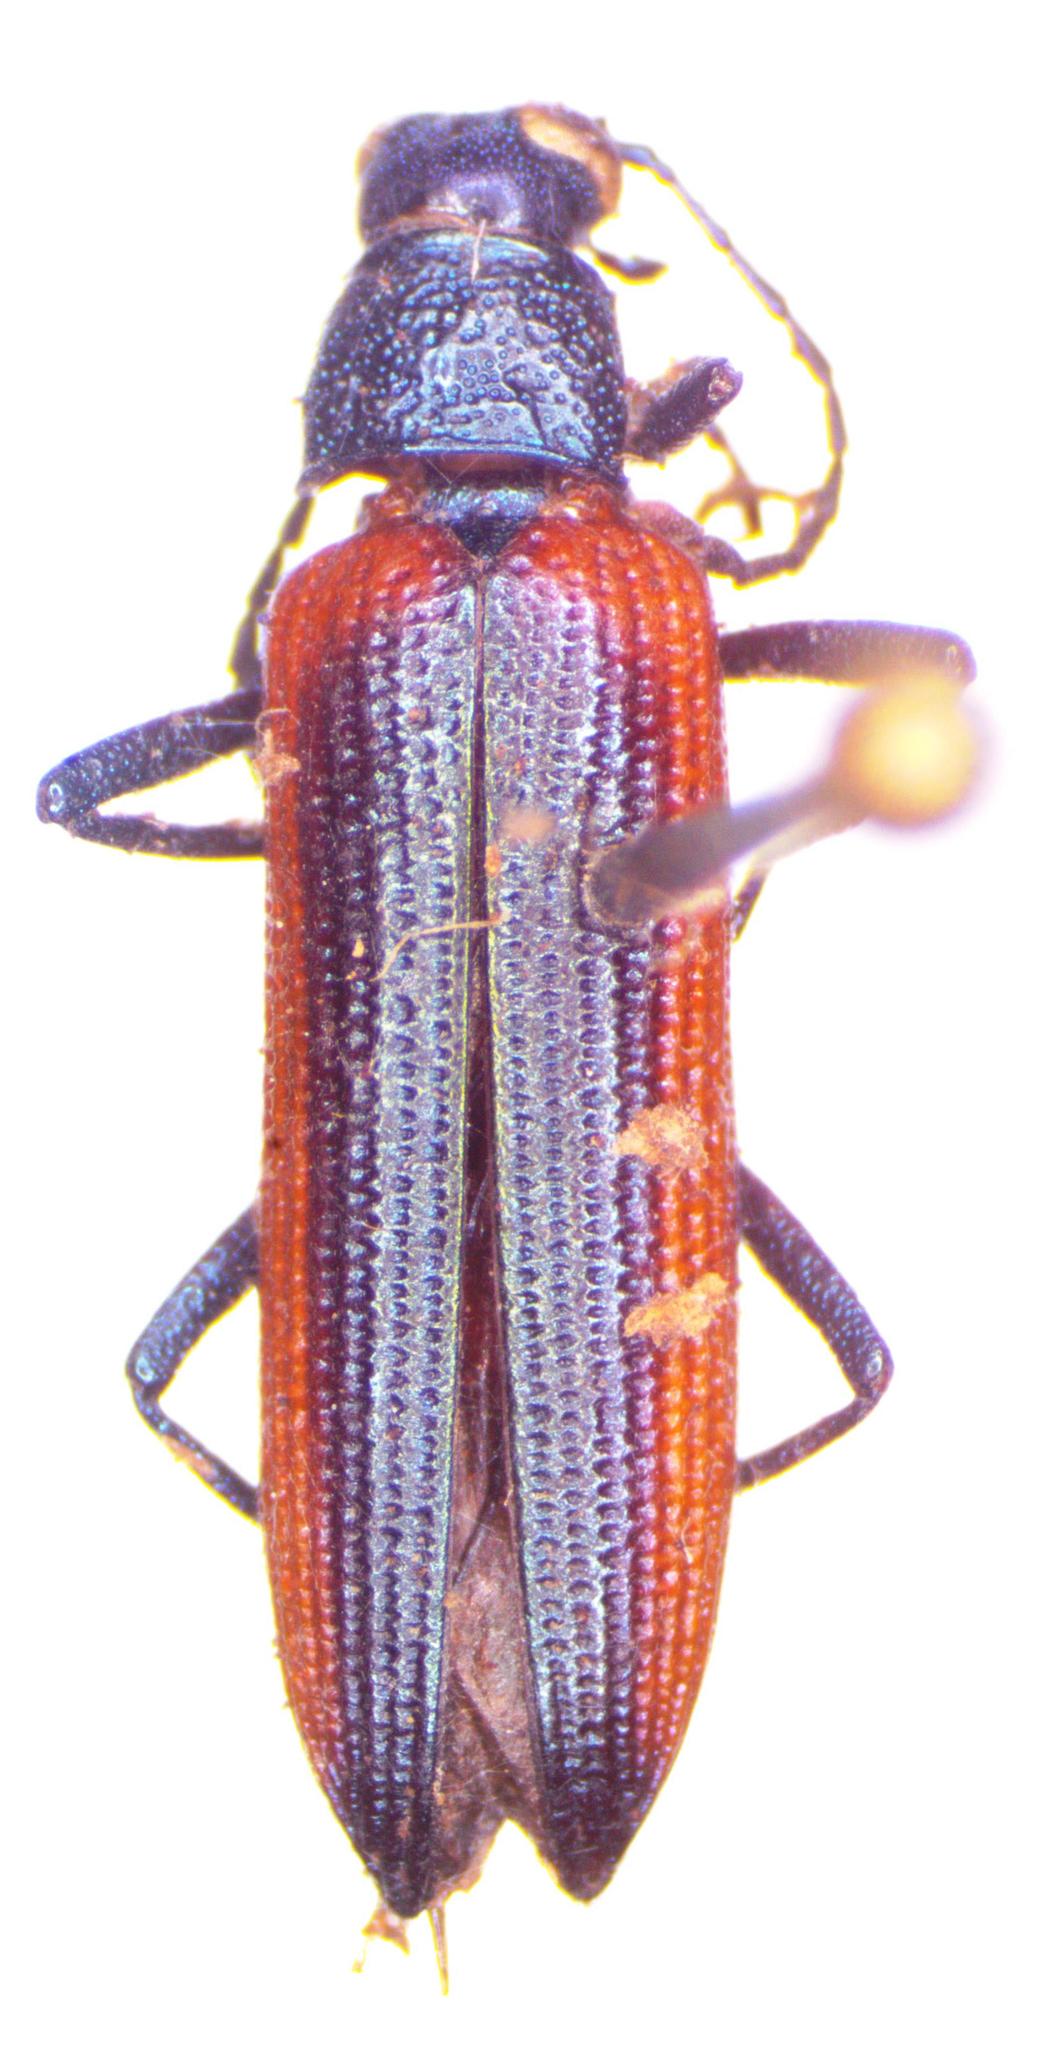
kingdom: Animalia
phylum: Arthropoda
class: Insecta
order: Coleoptera
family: Tenebrionidae
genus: Strongylium
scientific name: Strongylium nitidiceps
